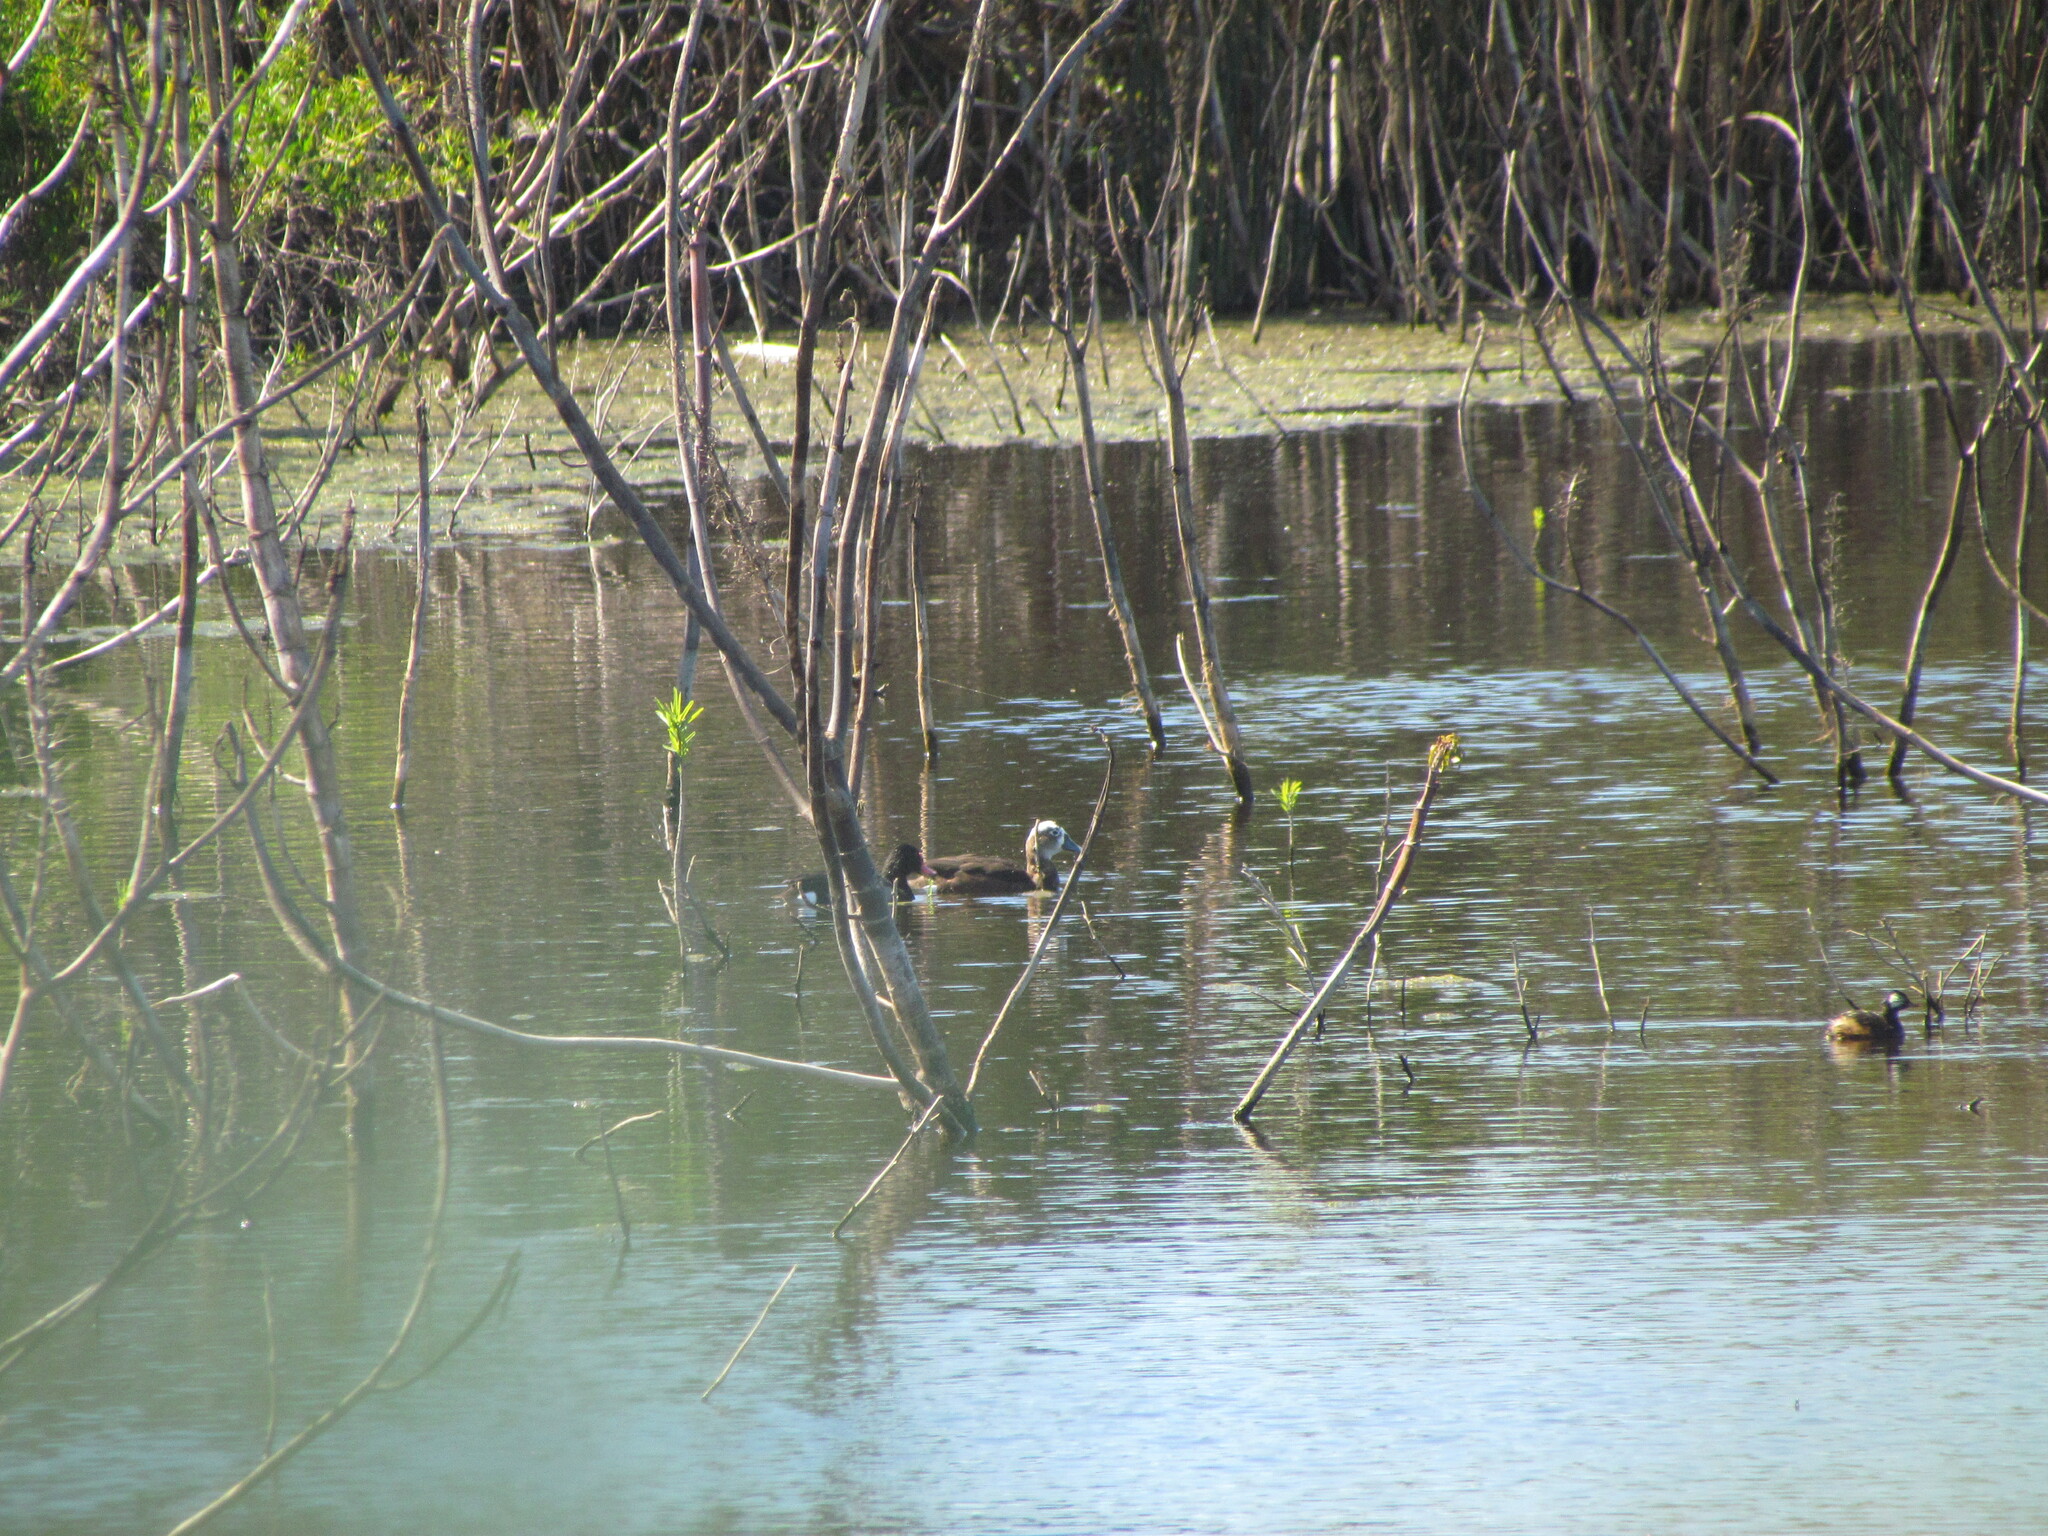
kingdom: Animalia
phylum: Chordata
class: Aves
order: Anseriformes
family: Anatidae
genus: Netta
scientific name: Netta peposaca
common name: Rosy-billed pochard
